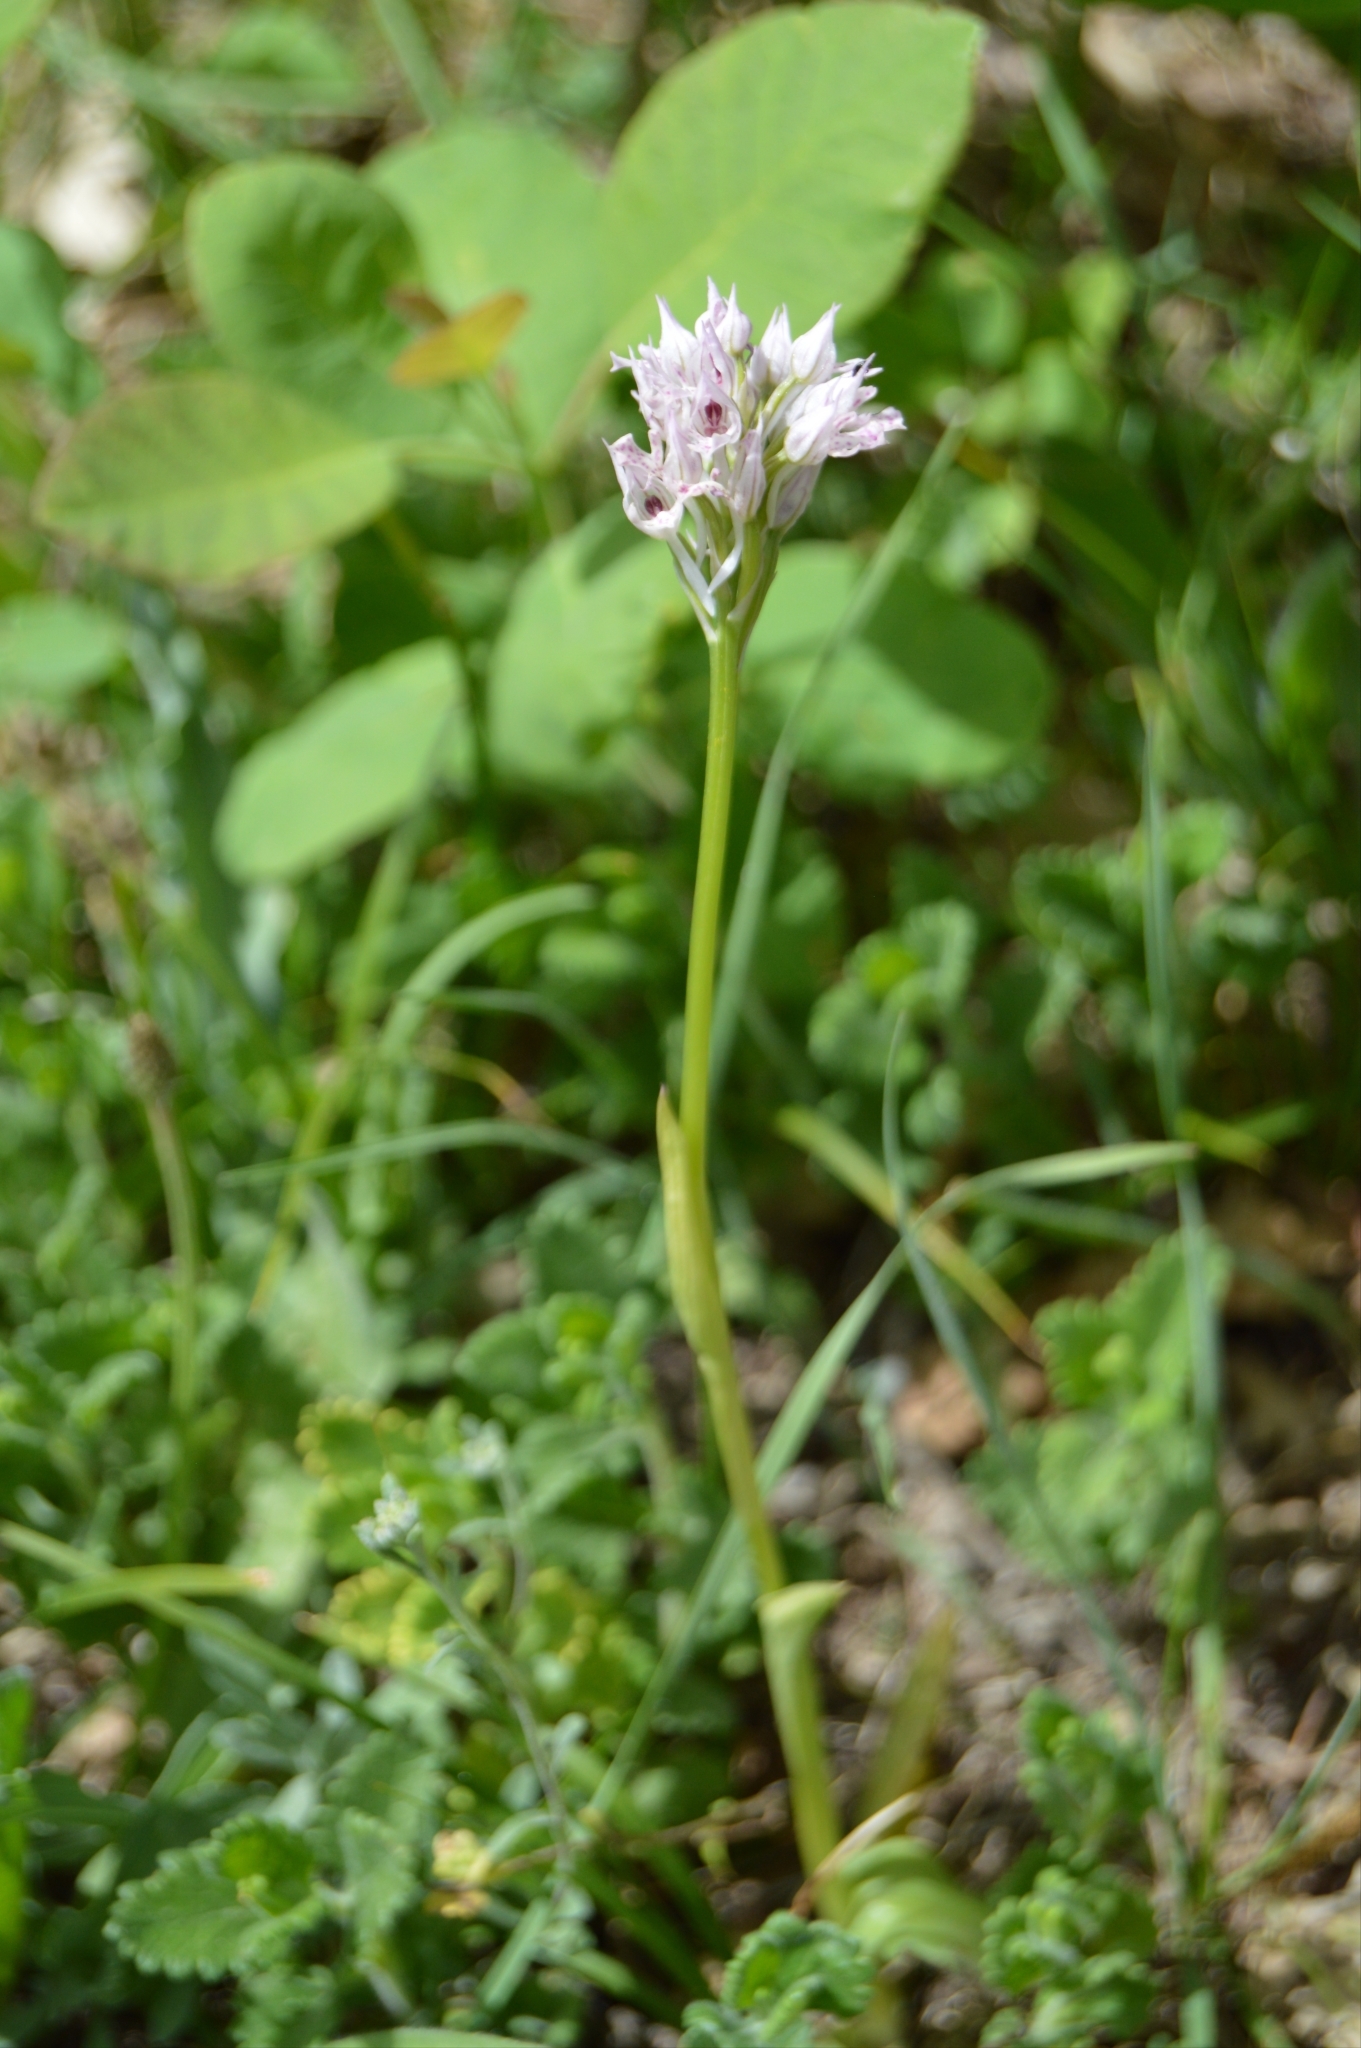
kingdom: Plantae
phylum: Tracheophyta
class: Liliopsida
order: Asparagales
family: Orchidaceae
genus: Neotinea
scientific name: Neotinea tridentata
